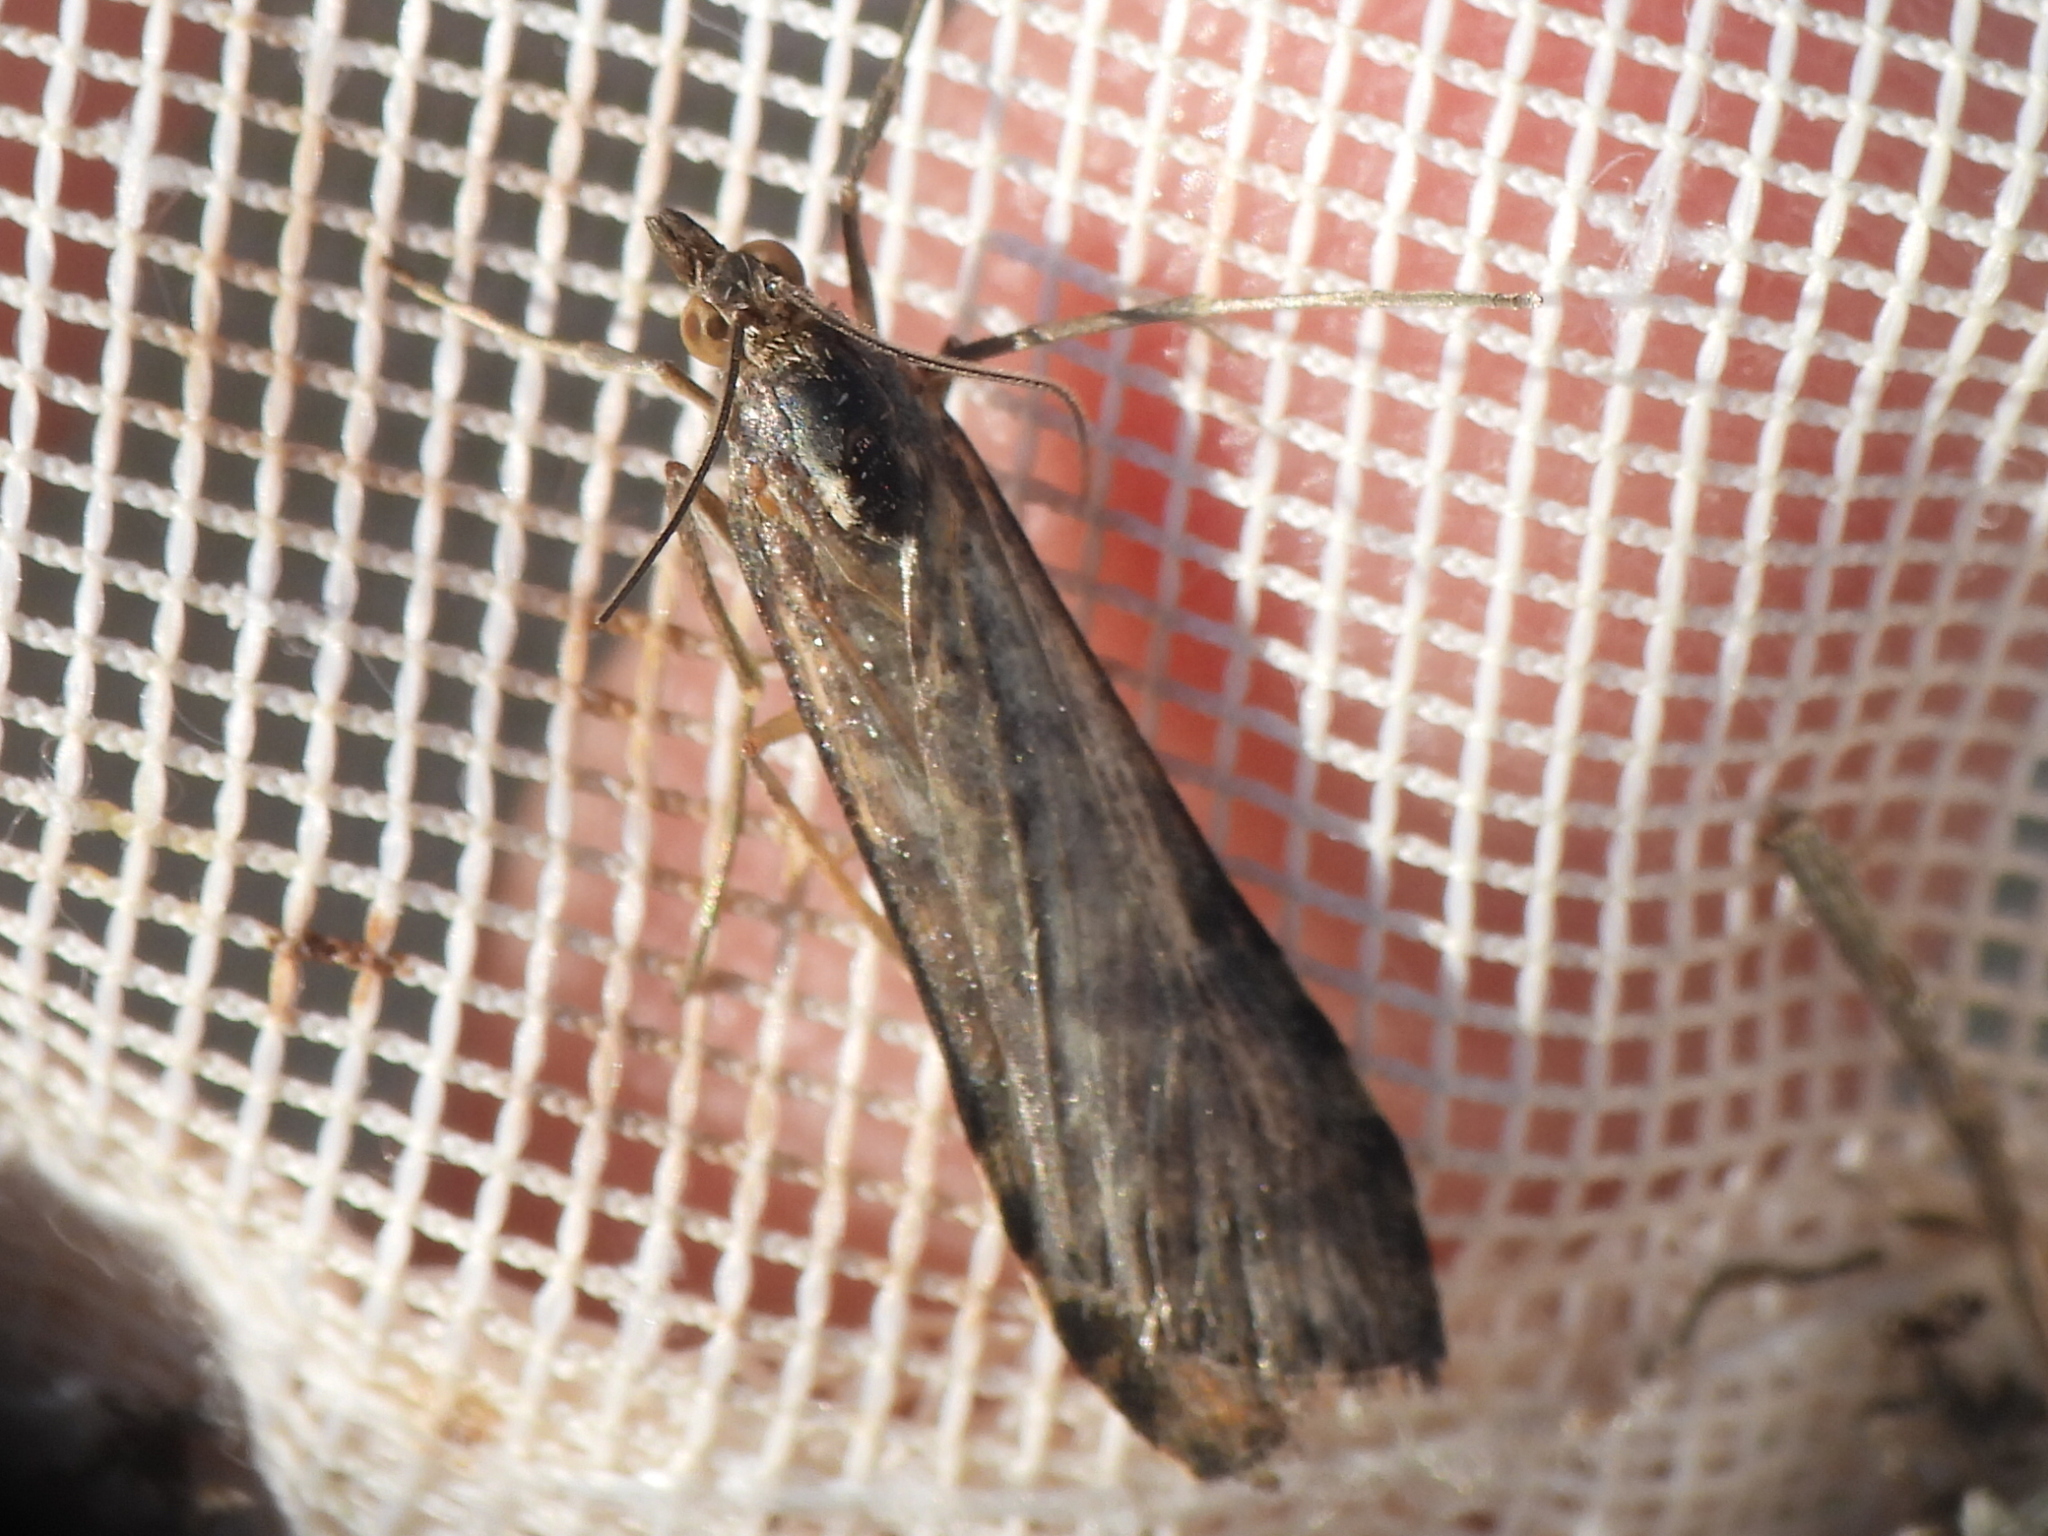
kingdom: Animalia
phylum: Arthropoda
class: Insecta
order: Lepidoptera
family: Crambidae
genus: Nomophila
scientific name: Nomophila nearctica
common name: American rush veneer
